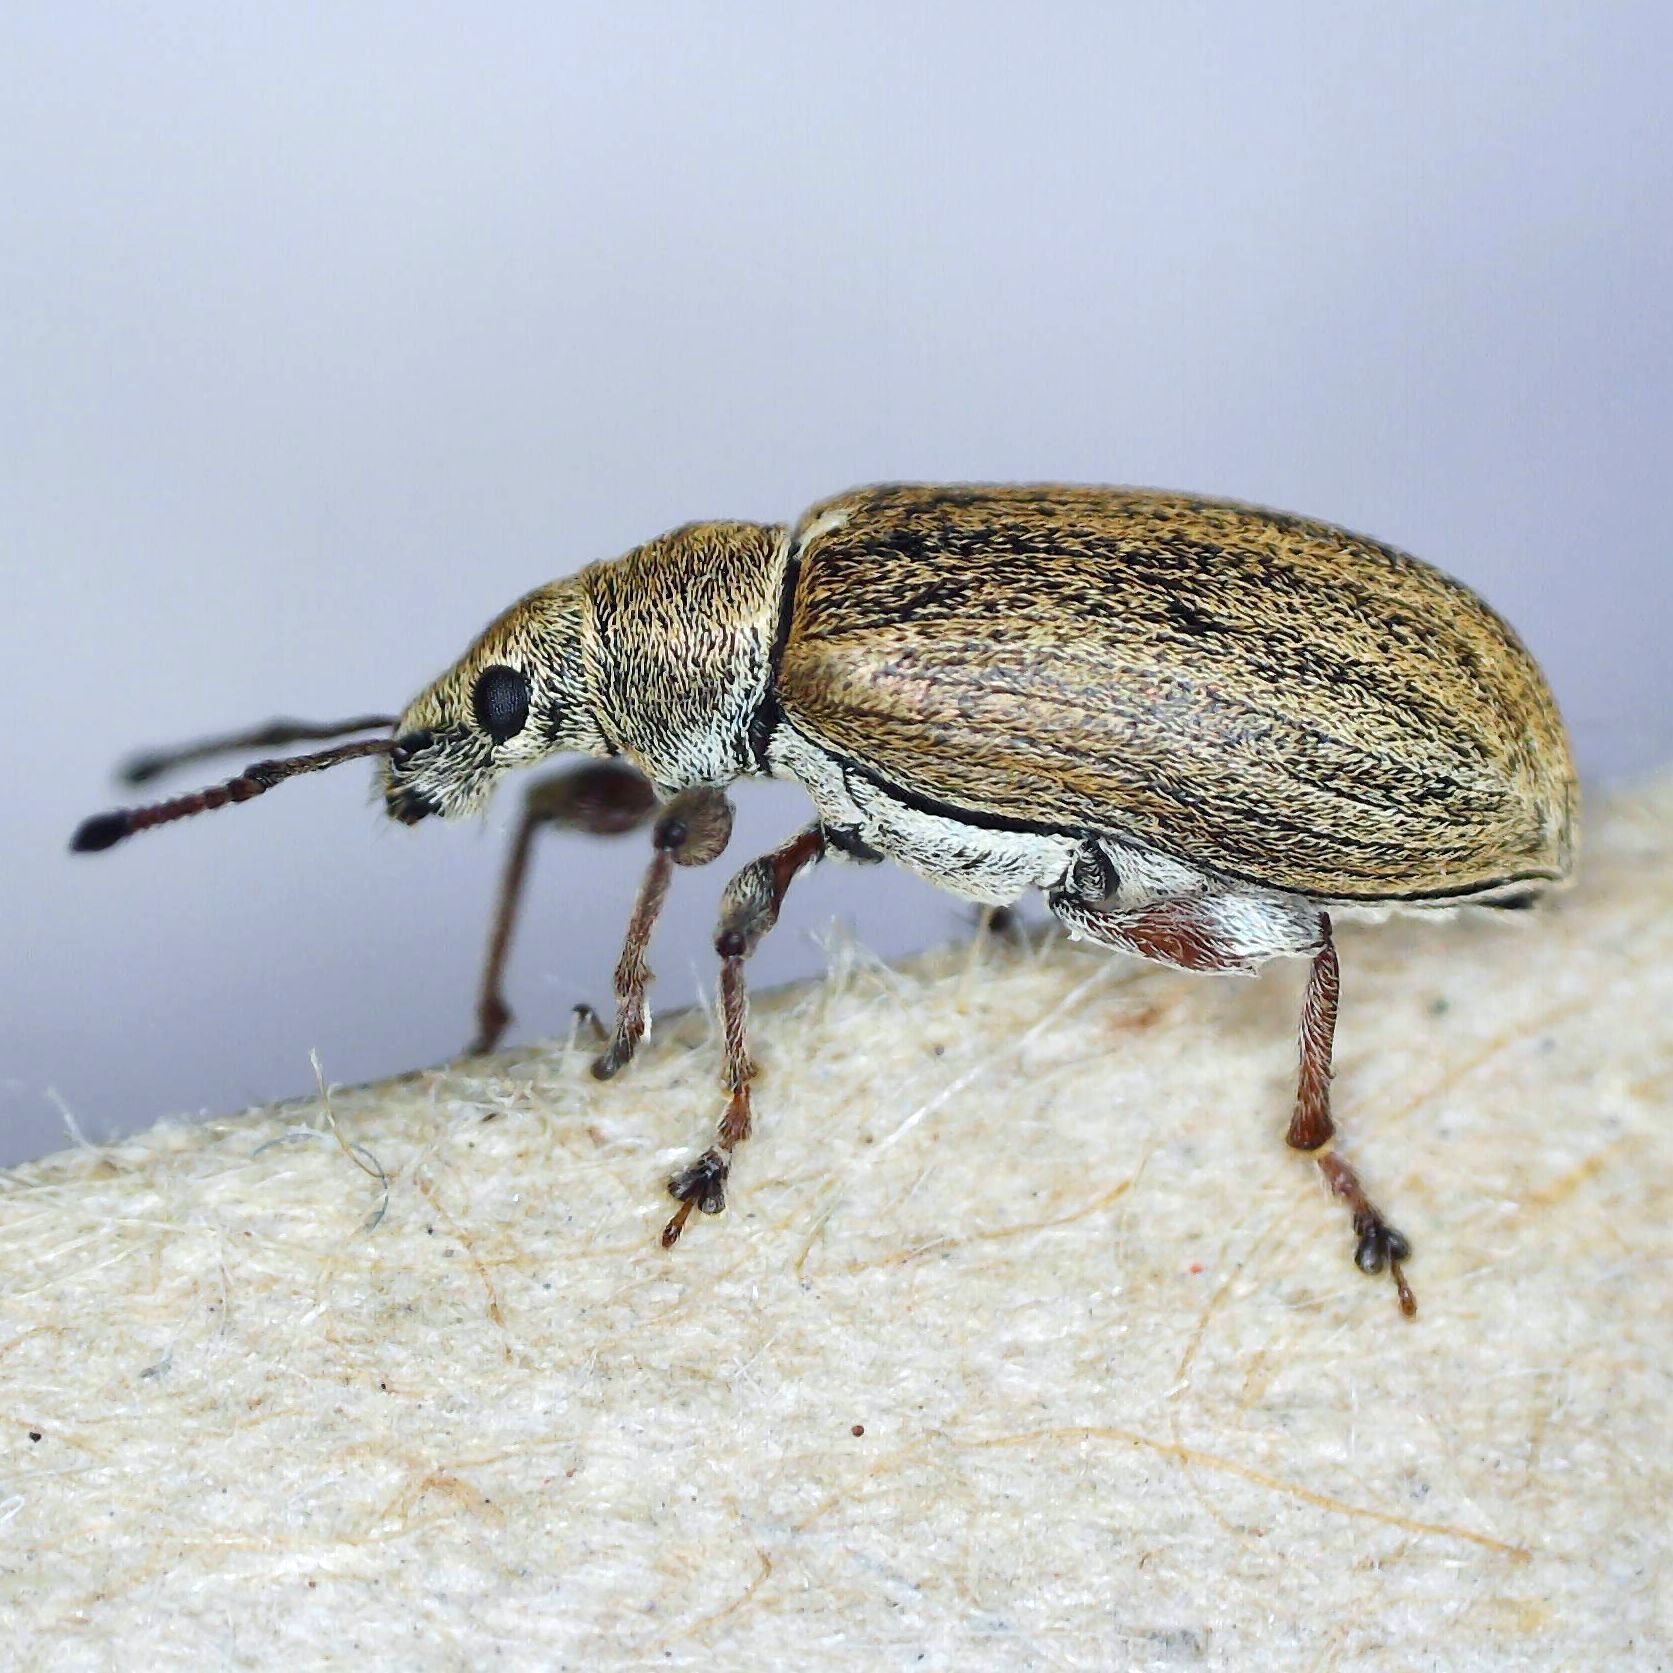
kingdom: Animalia
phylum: Arthropoda
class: Insecta
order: Coleoptera
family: Curculionidae
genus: Phyllobius
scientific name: Phyllobius pyri
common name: Common leaf weevil
